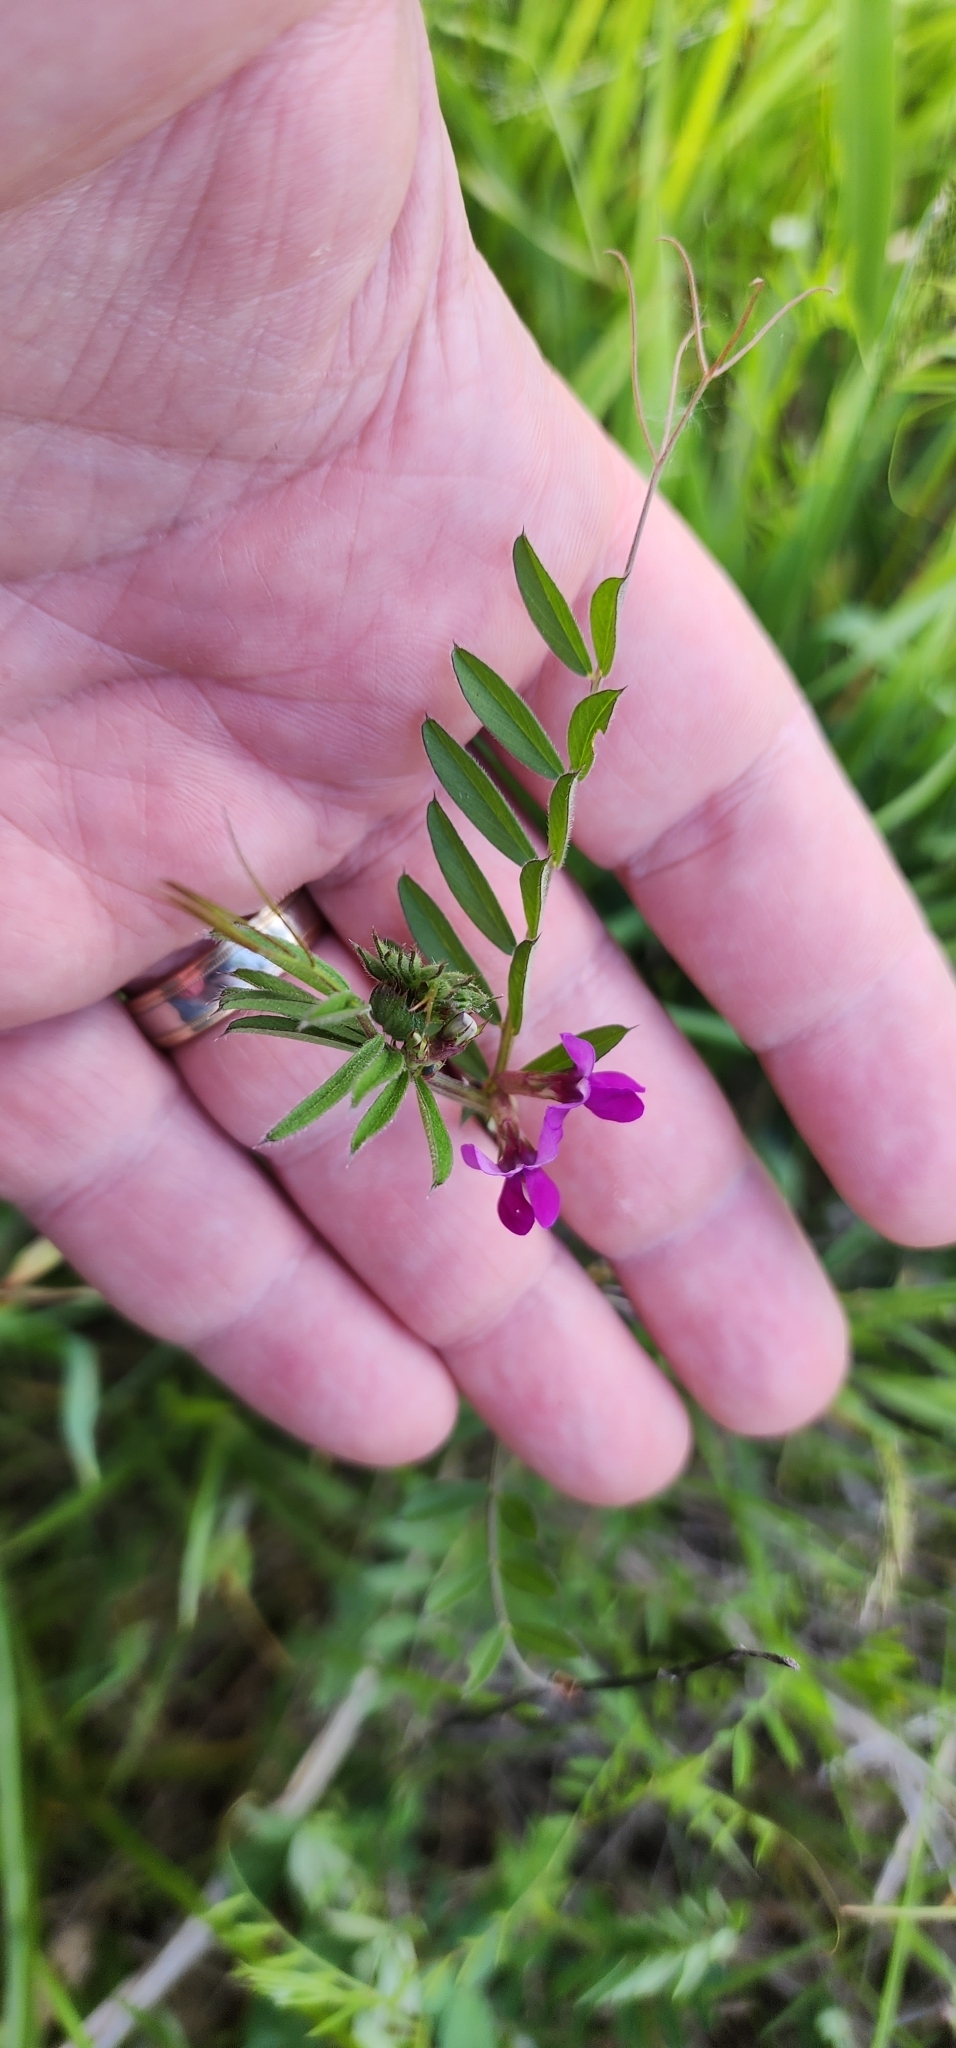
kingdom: Plantae
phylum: Tracheophyta
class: Magnoliopsida
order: Fabales
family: Fabaceae
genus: Vicia
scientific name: Vicia sativa
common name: Garden vetch
